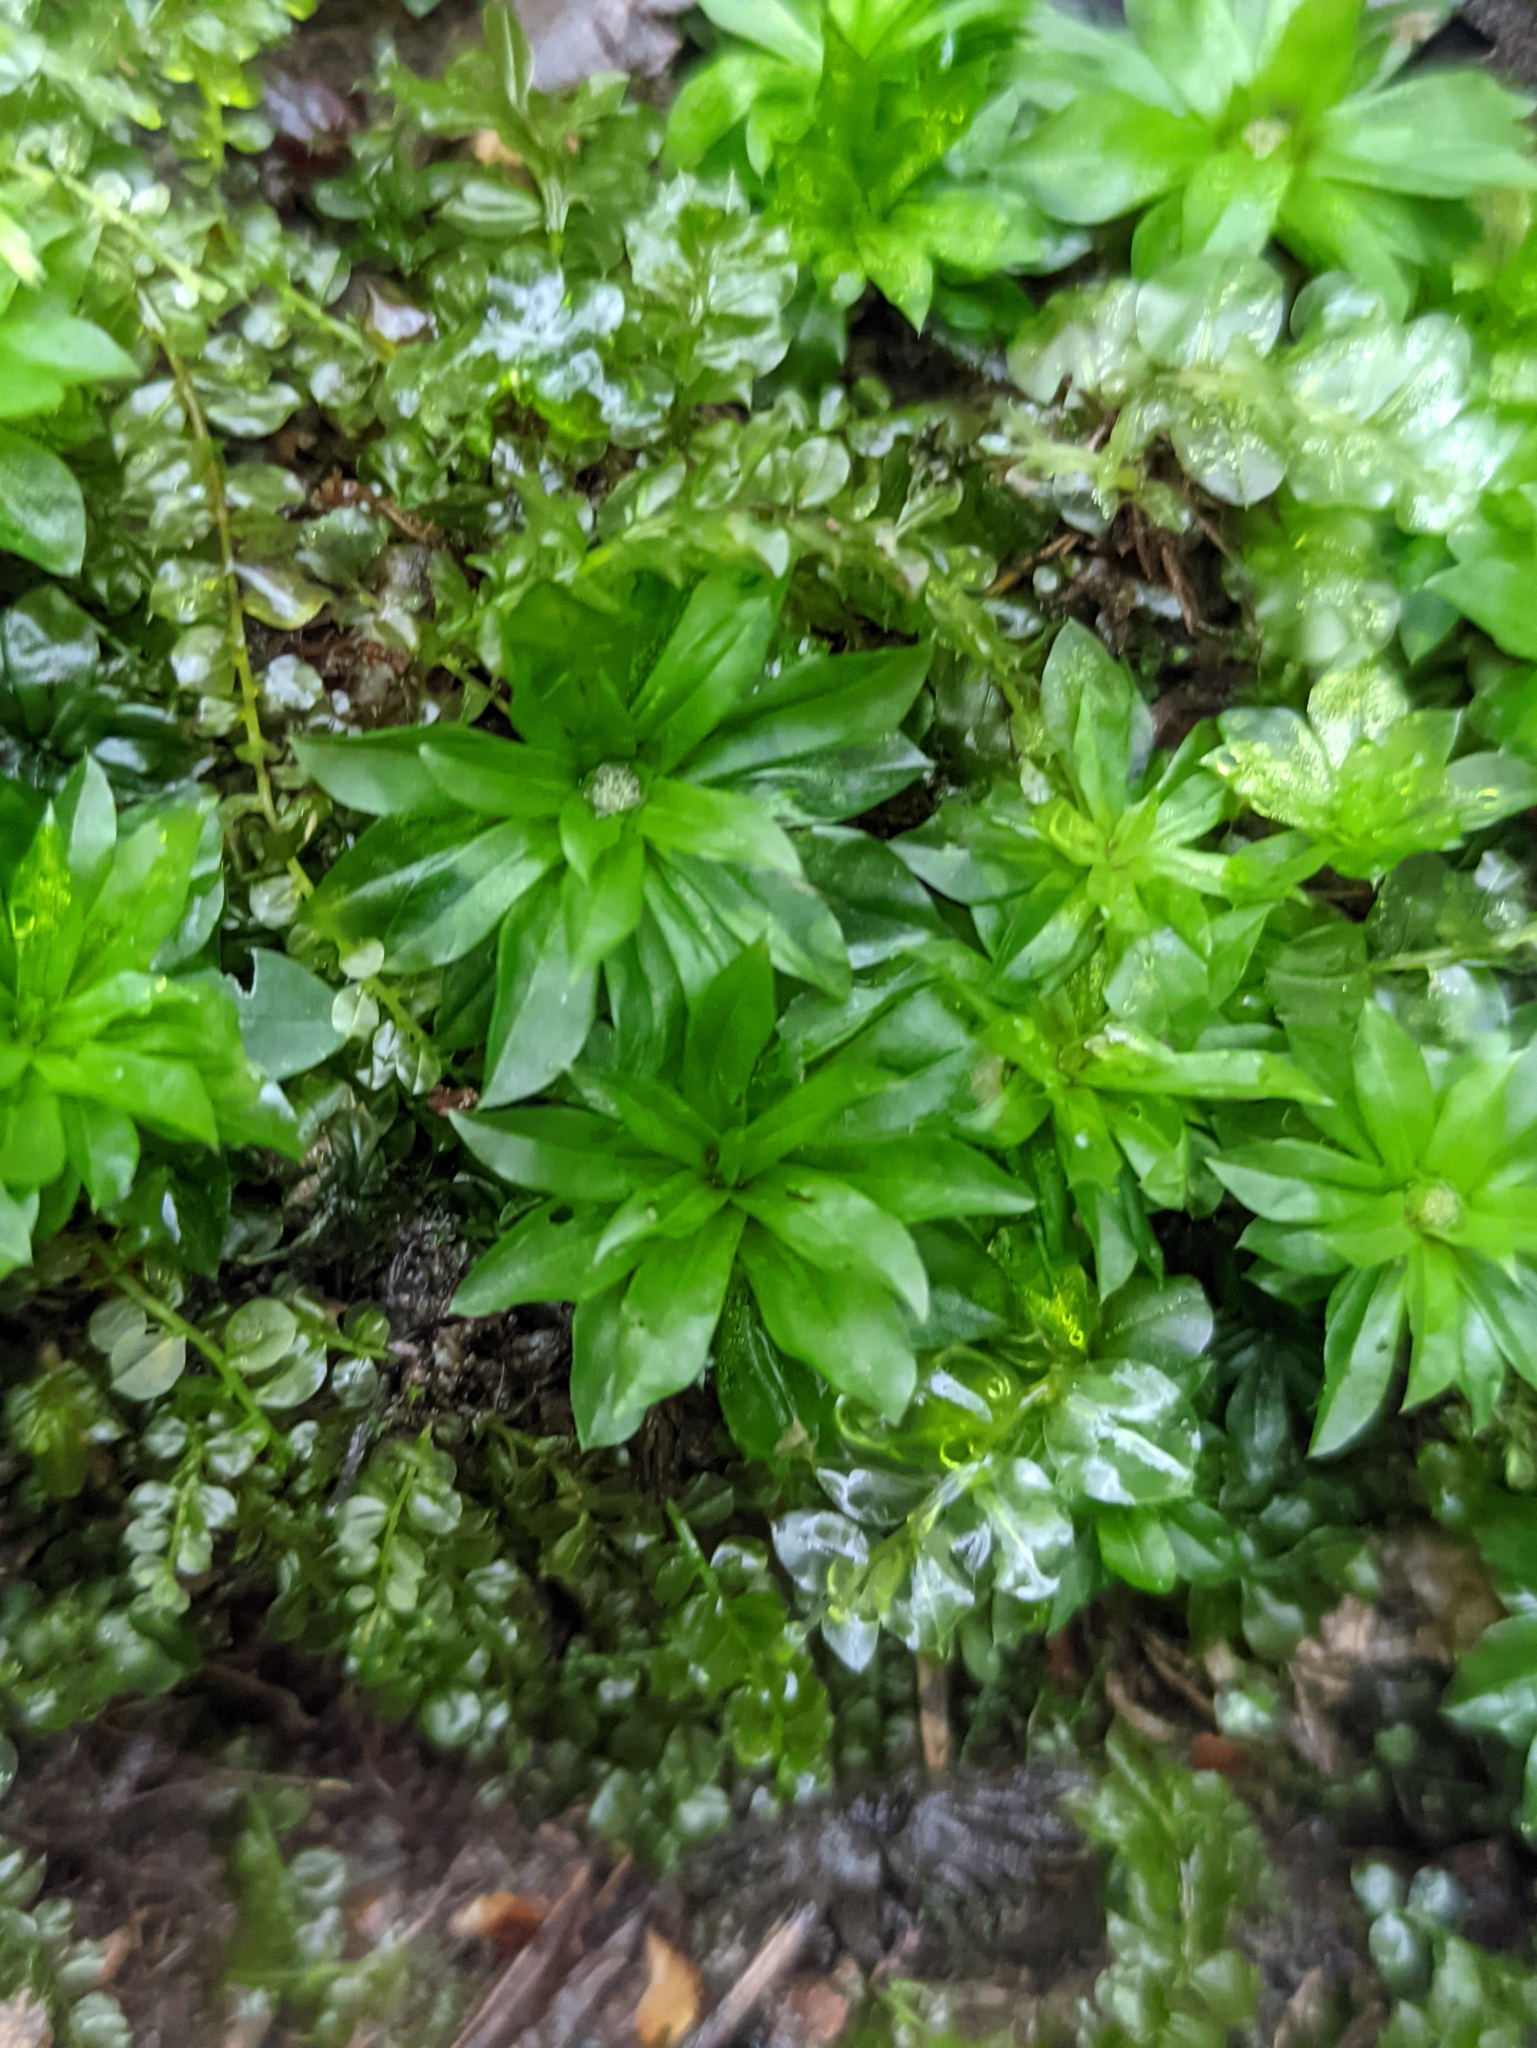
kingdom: Plantae
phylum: Bryophyta
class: Bryopsida
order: Bryales
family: Bryaceae
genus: Rhodobryum
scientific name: Rhodobryum roseum
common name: Rose-moss
